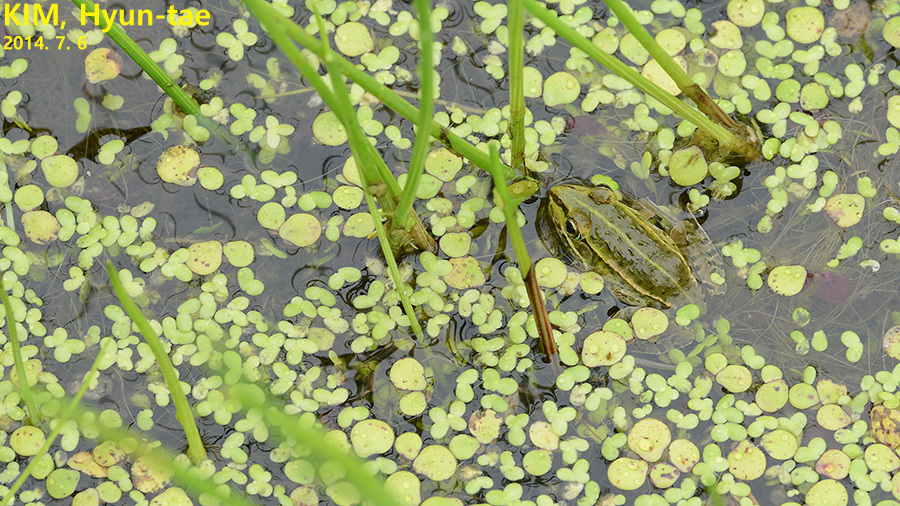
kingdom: Animalia
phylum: Chordata
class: Amphibia
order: Anura
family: Ranidae
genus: Pelophylax
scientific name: Pelophylax nigromaculatus
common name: Black-spotted pond frog
